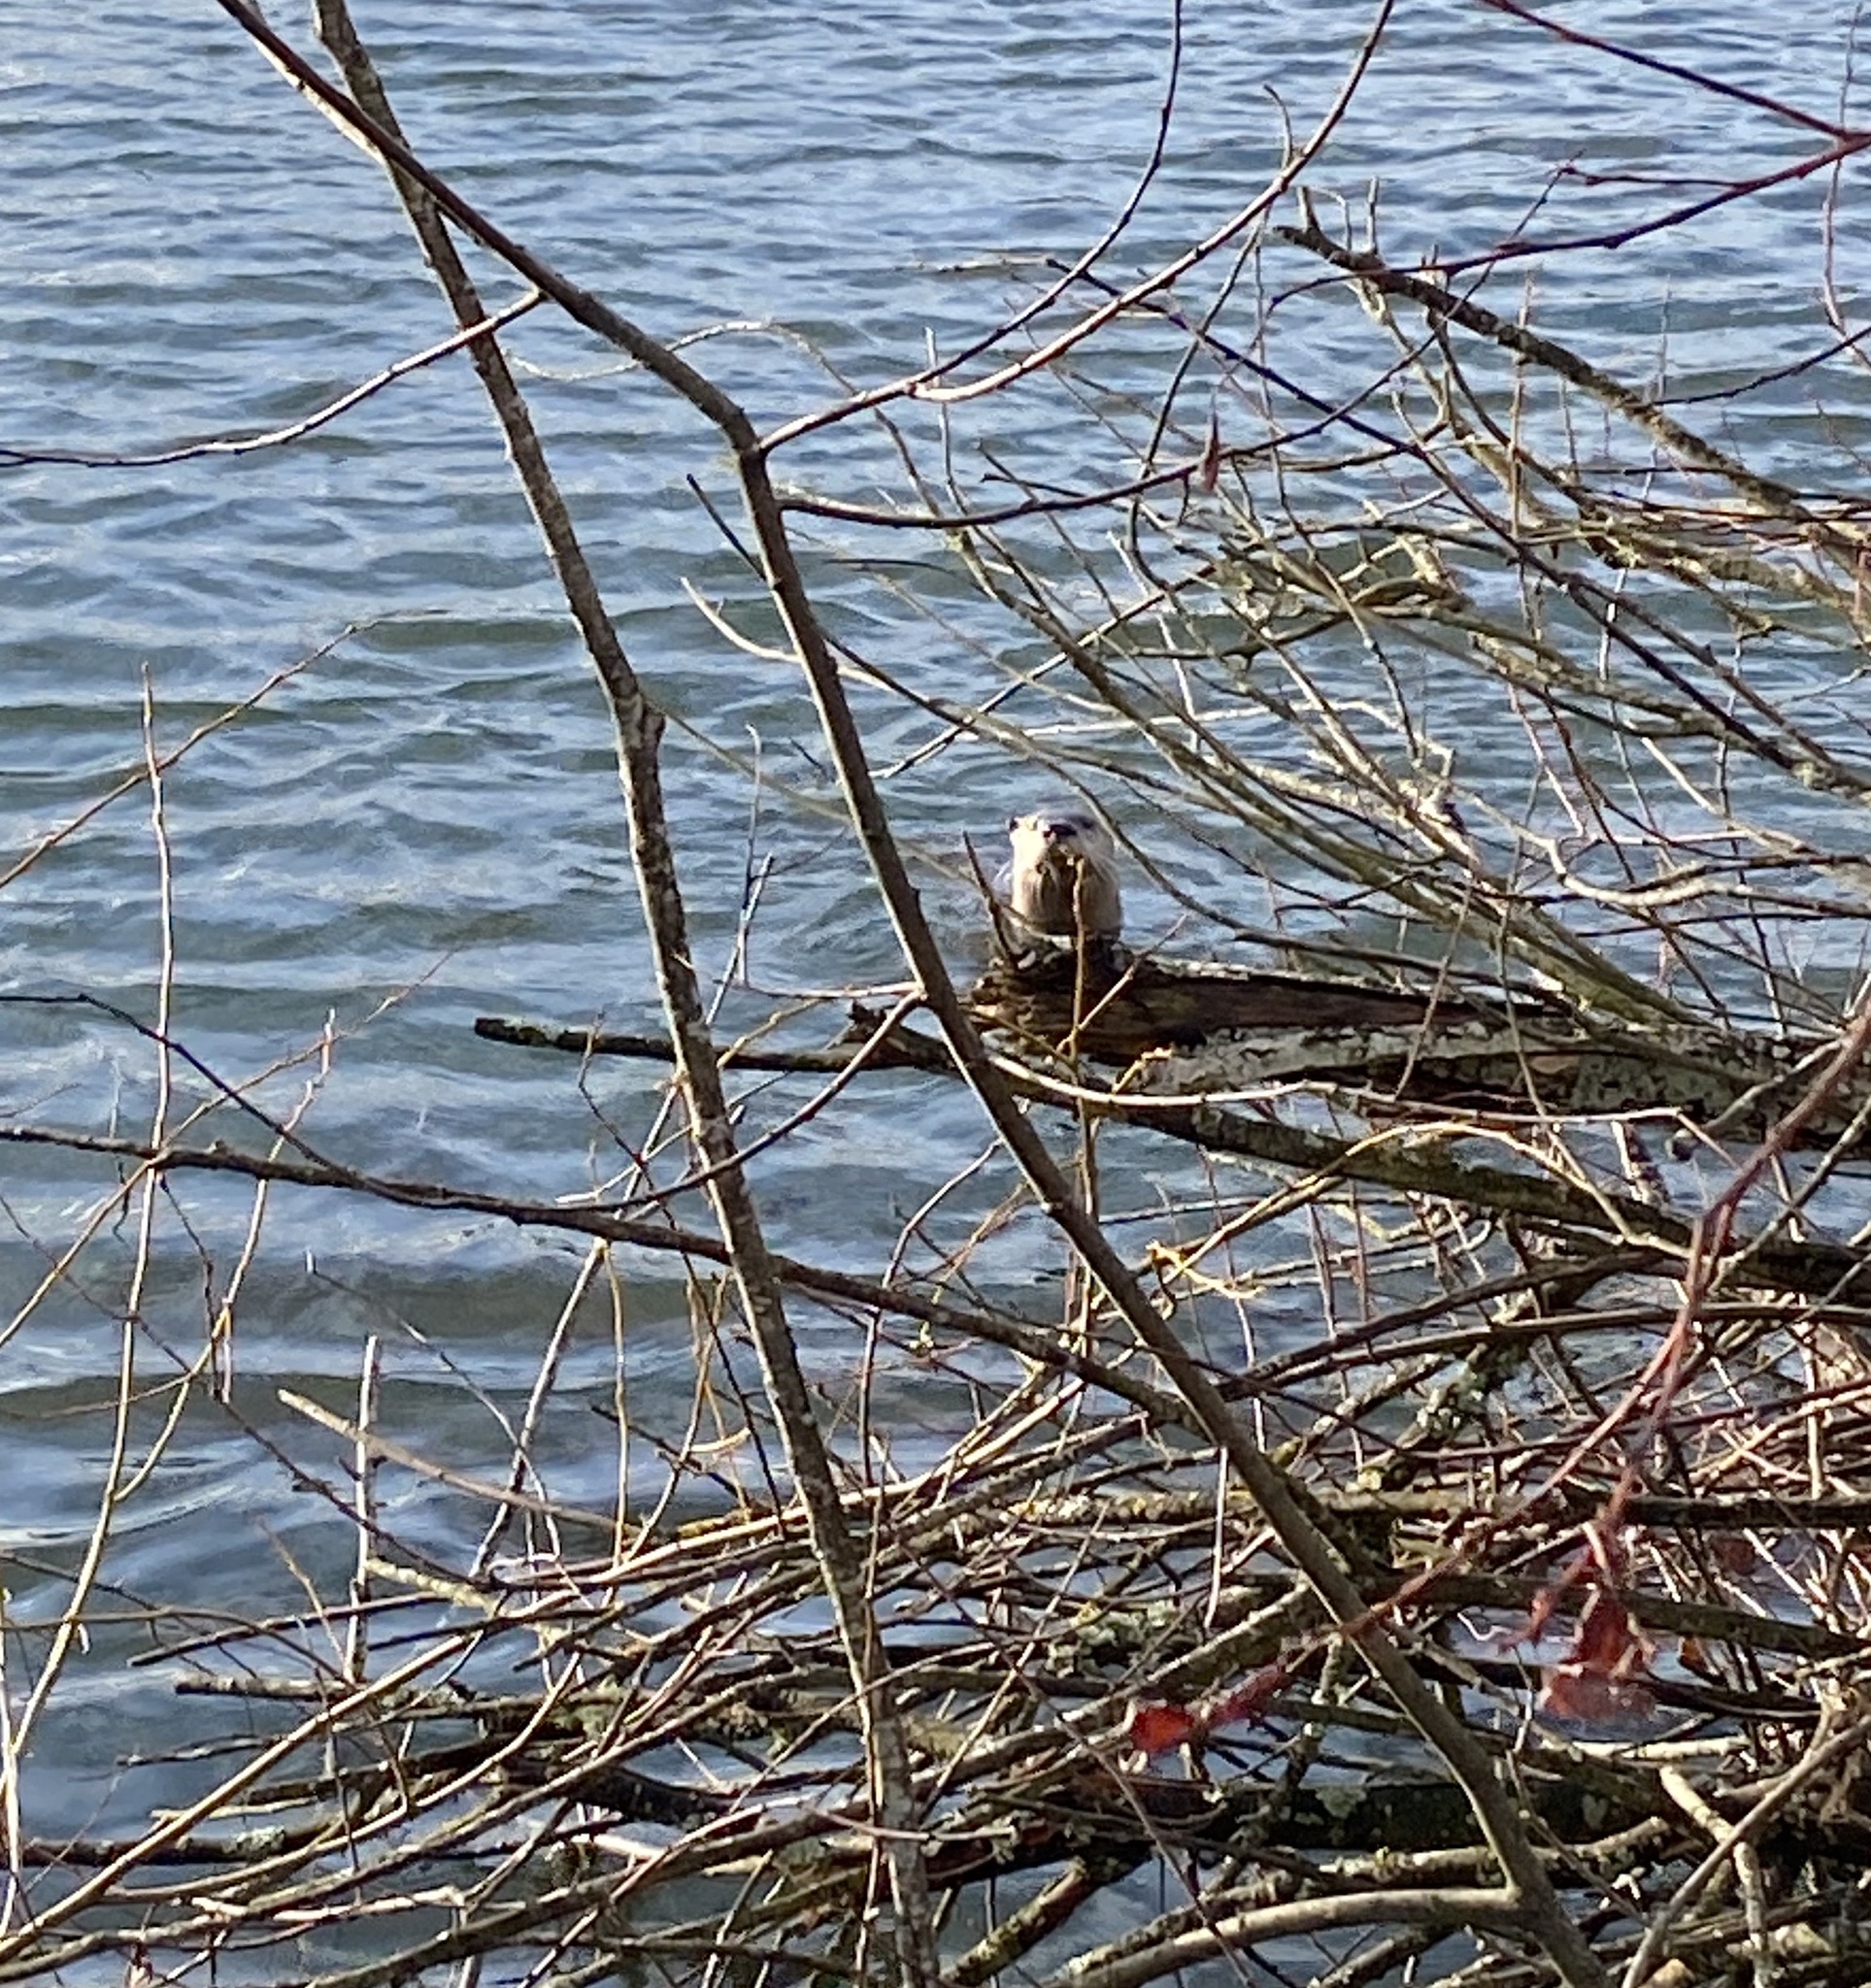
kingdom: Animalia
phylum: Chordata
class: Mammalia
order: Carnivora
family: Mustelidae
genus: Lontra
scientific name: Lontra canadensis
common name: North american river otter
